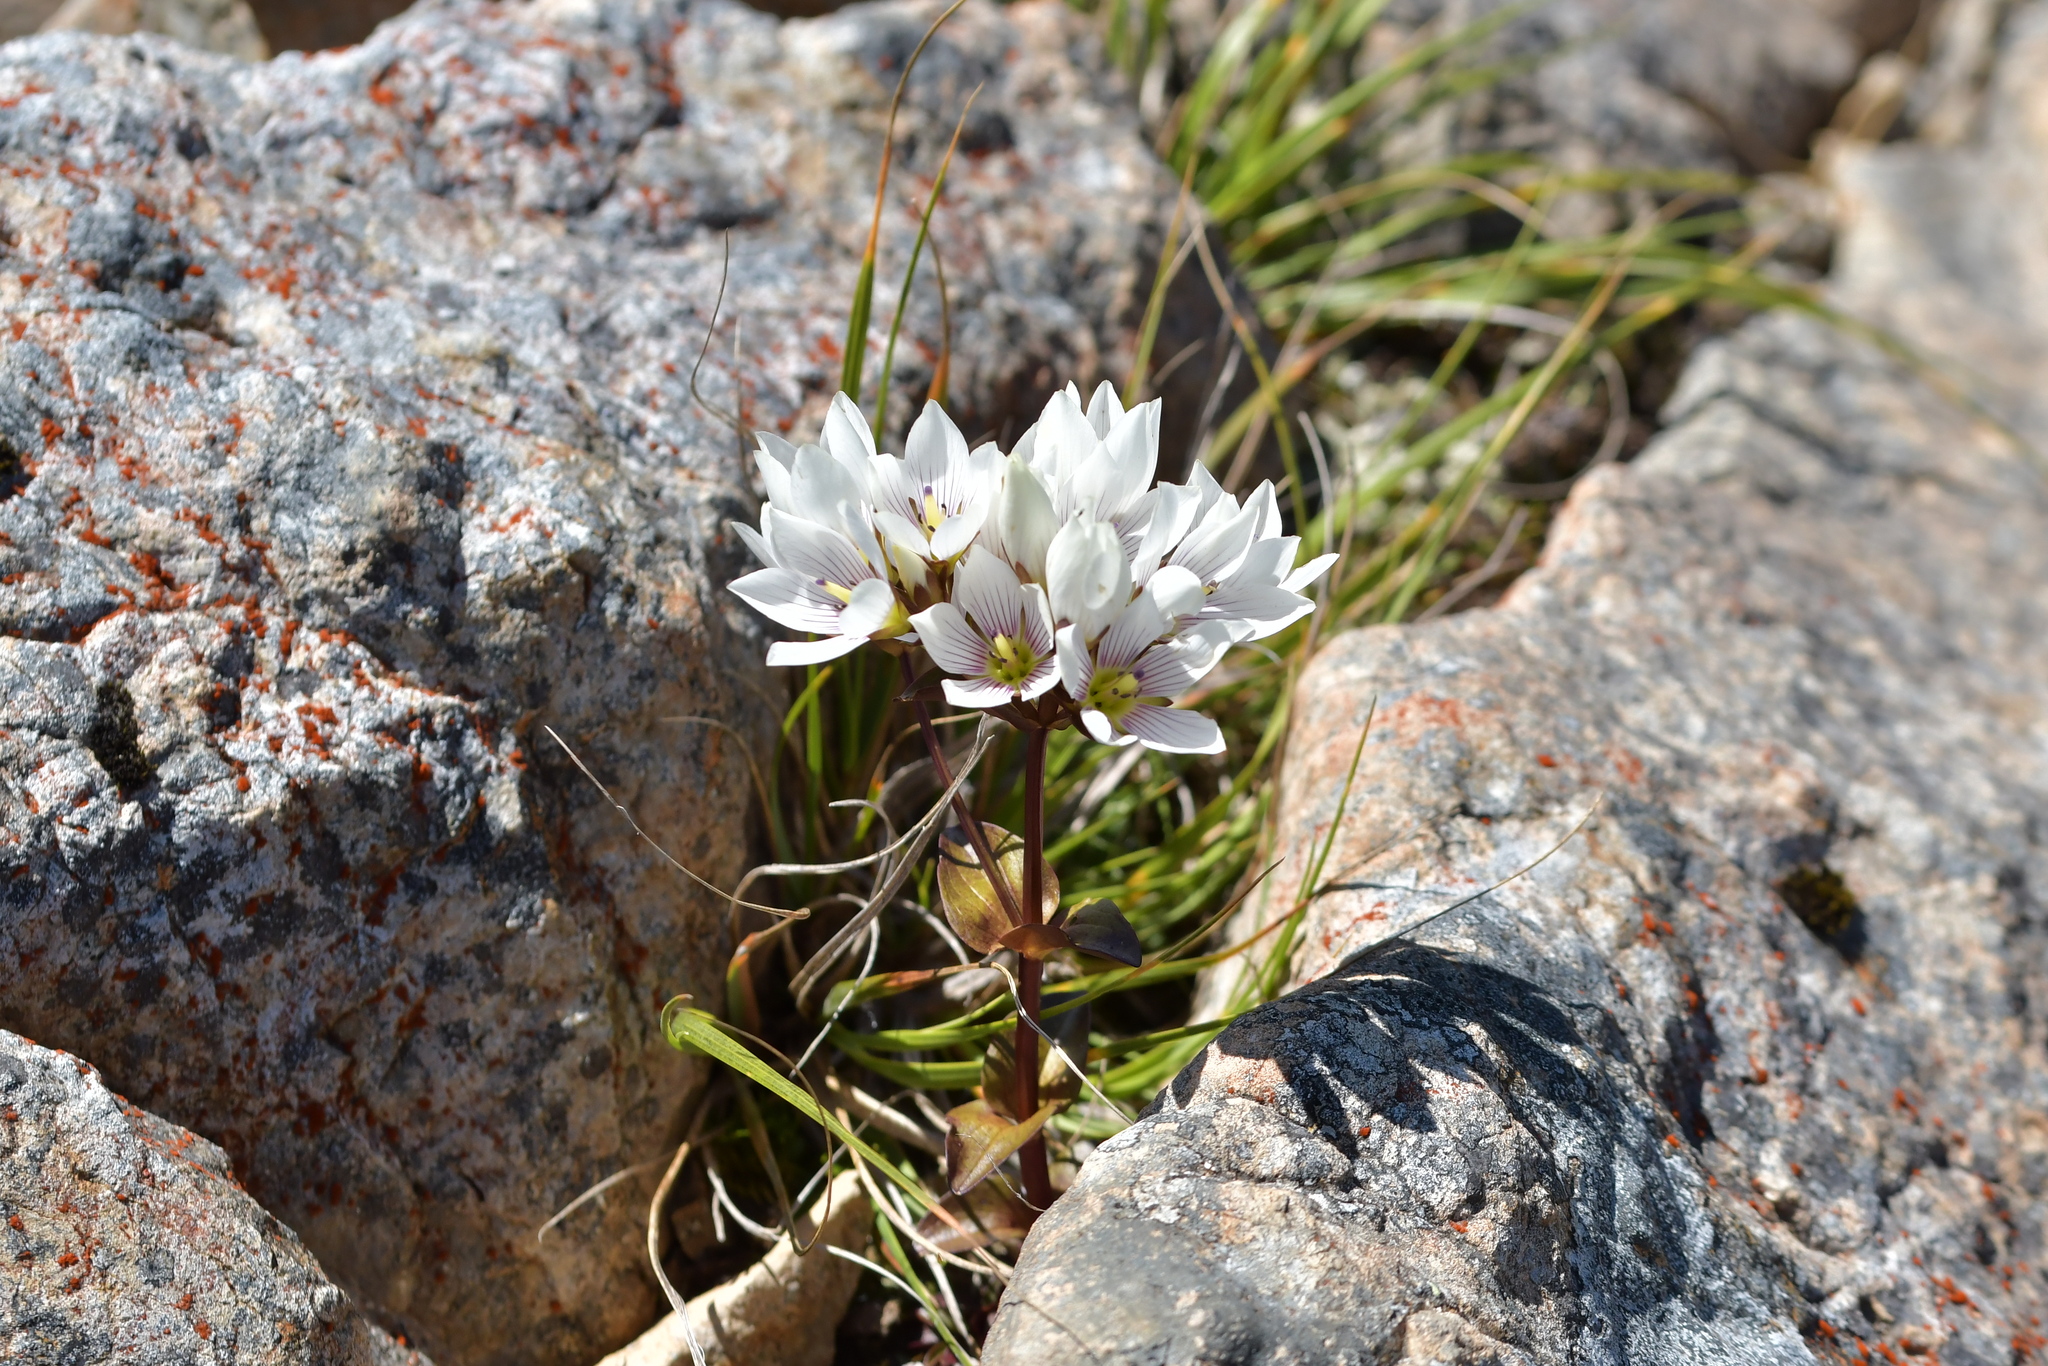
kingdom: Plantae
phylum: Tracheophyta
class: Magnoliopsida
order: Gentianales
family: Gentianaceae
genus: Gentianella
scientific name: Gentianella montana
